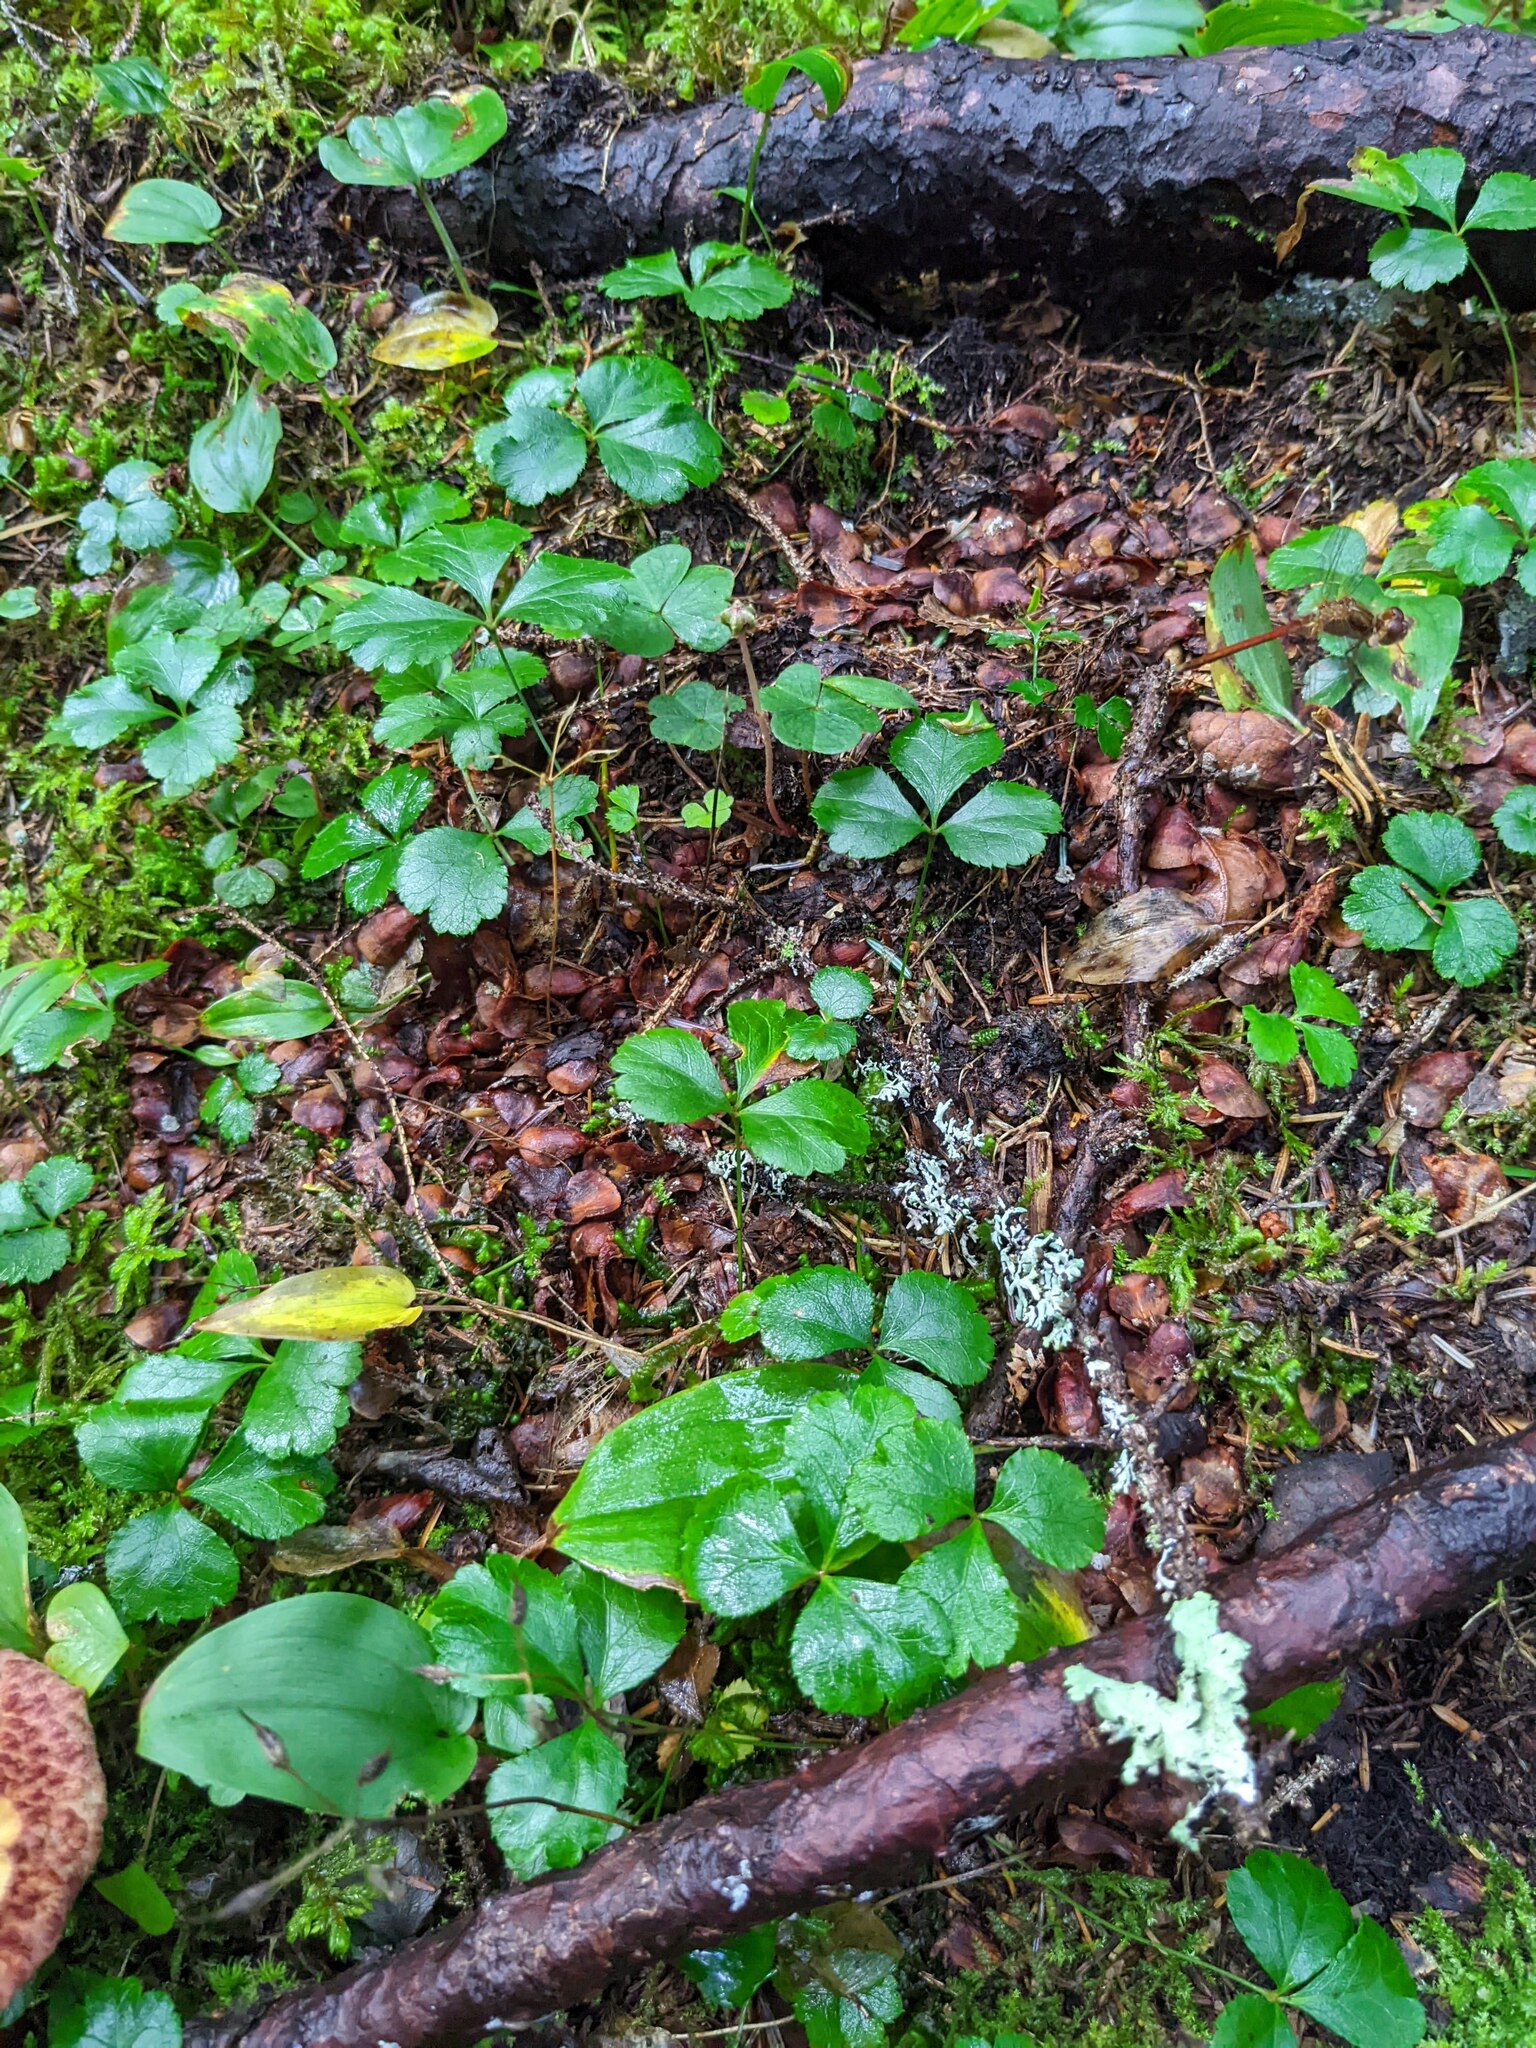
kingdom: Plantae
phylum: Tracheophyta
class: Magnoliopsida
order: Ranunculales
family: Ranunculaceae
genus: Coptis
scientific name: Coptis trifolia
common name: Canker-root
